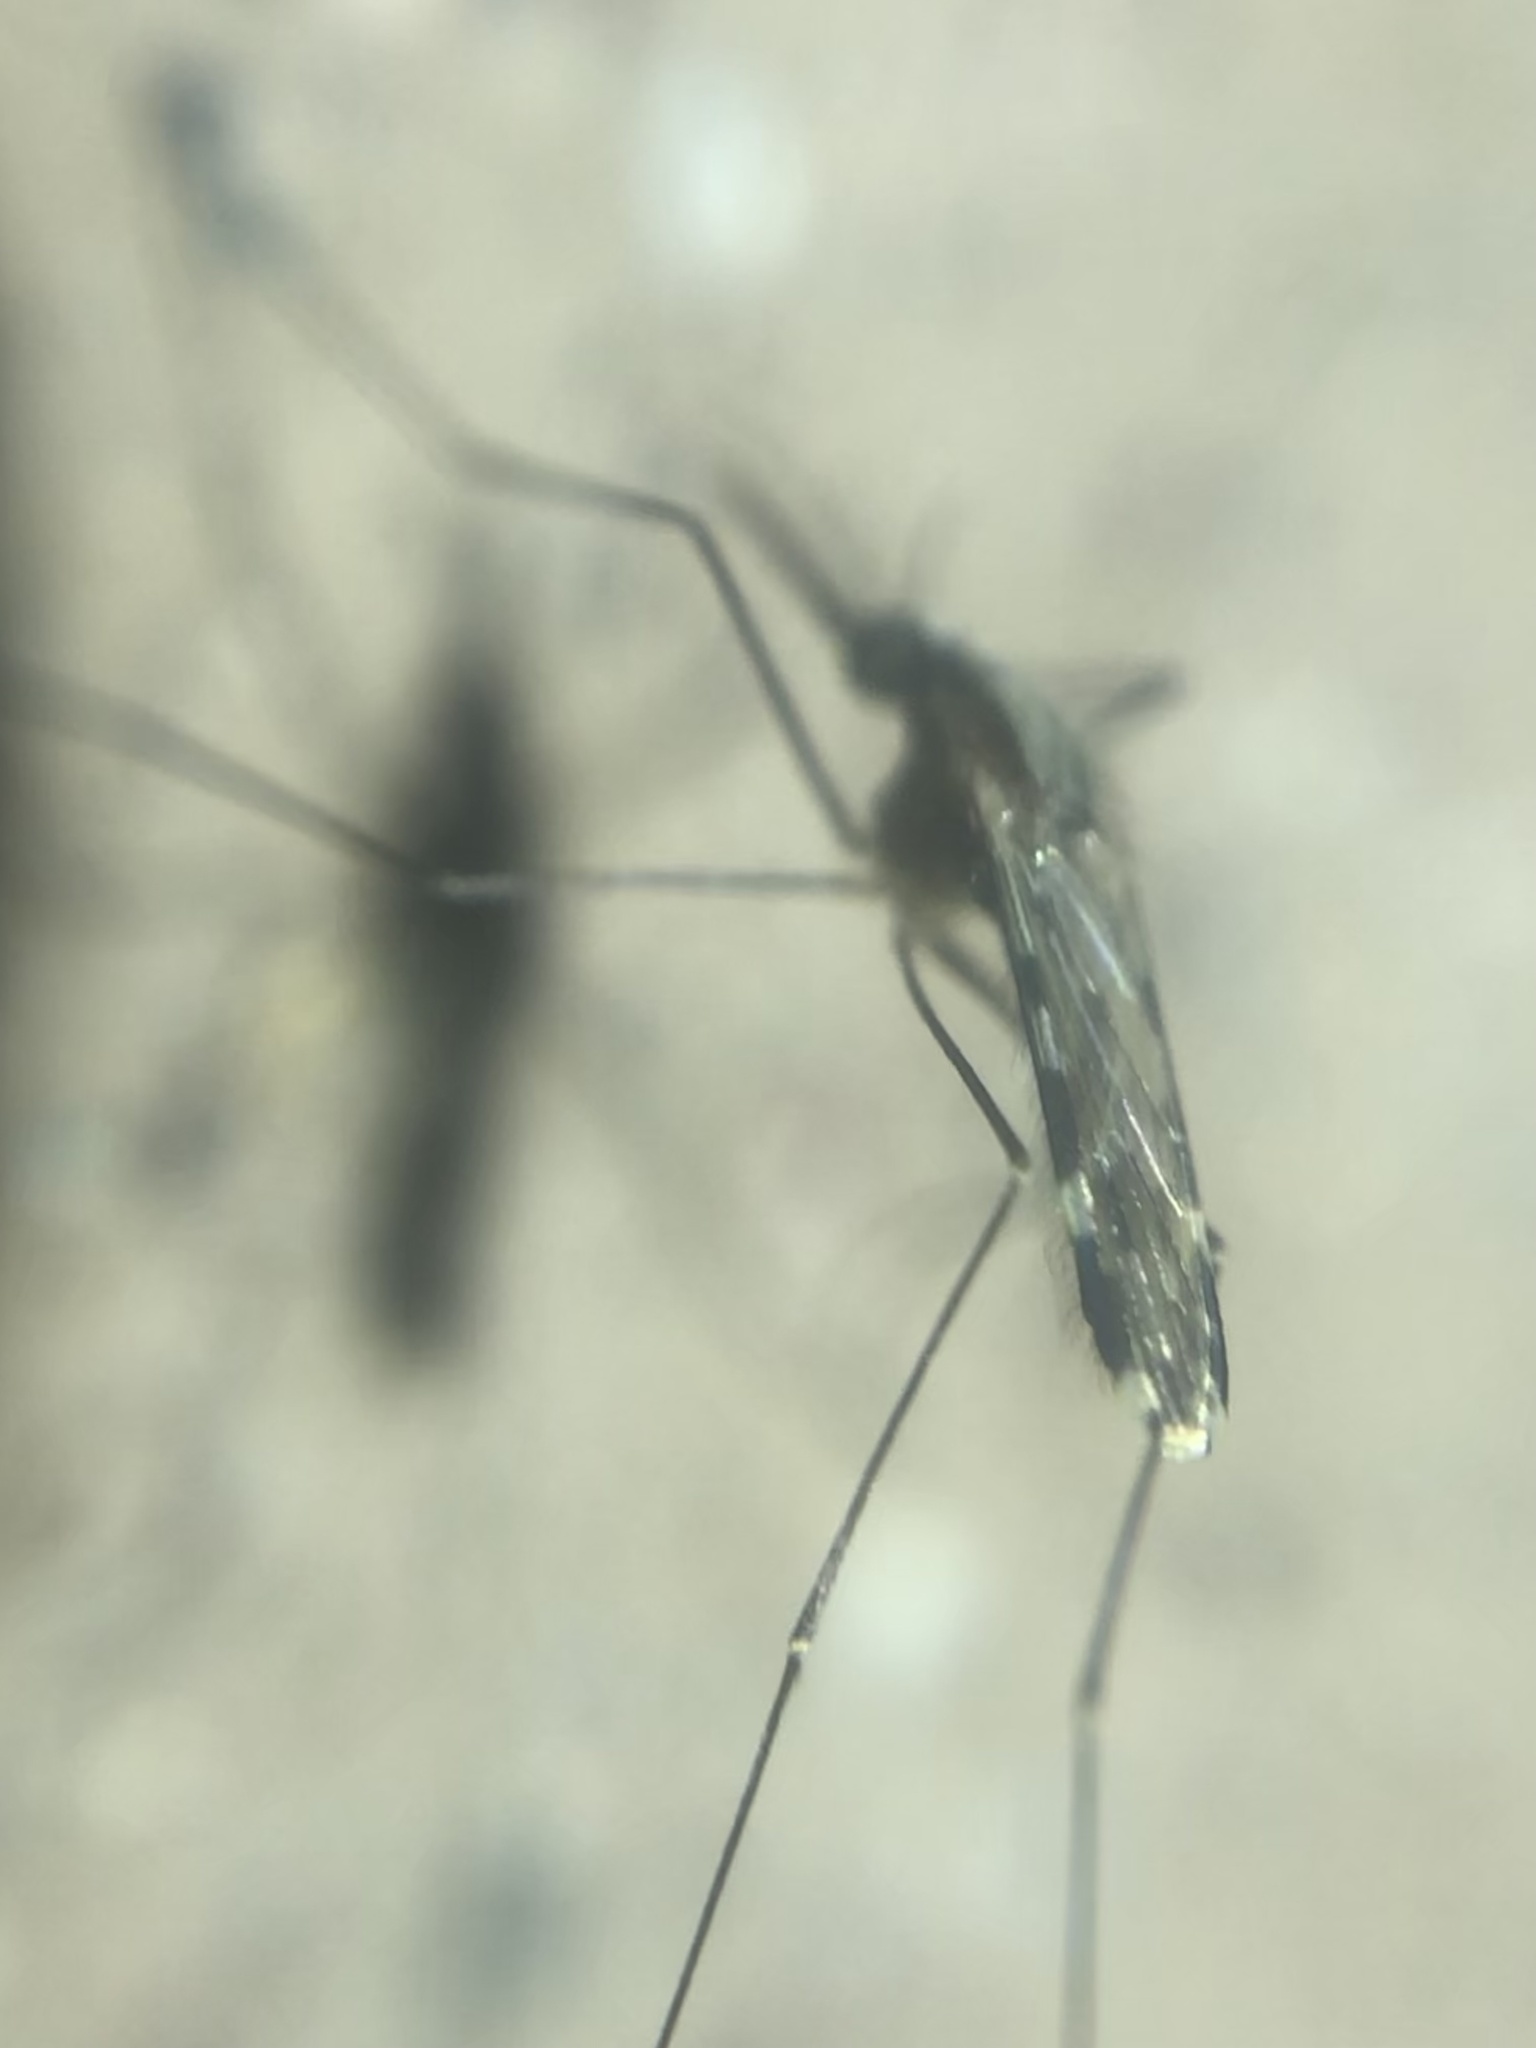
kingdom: Animalia
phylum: Arthropoda
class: Insecta
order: Diptera
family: Culicidae
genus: Anopheles
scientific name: Anopheles punctipennis
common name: Woodland malaria mosquito
